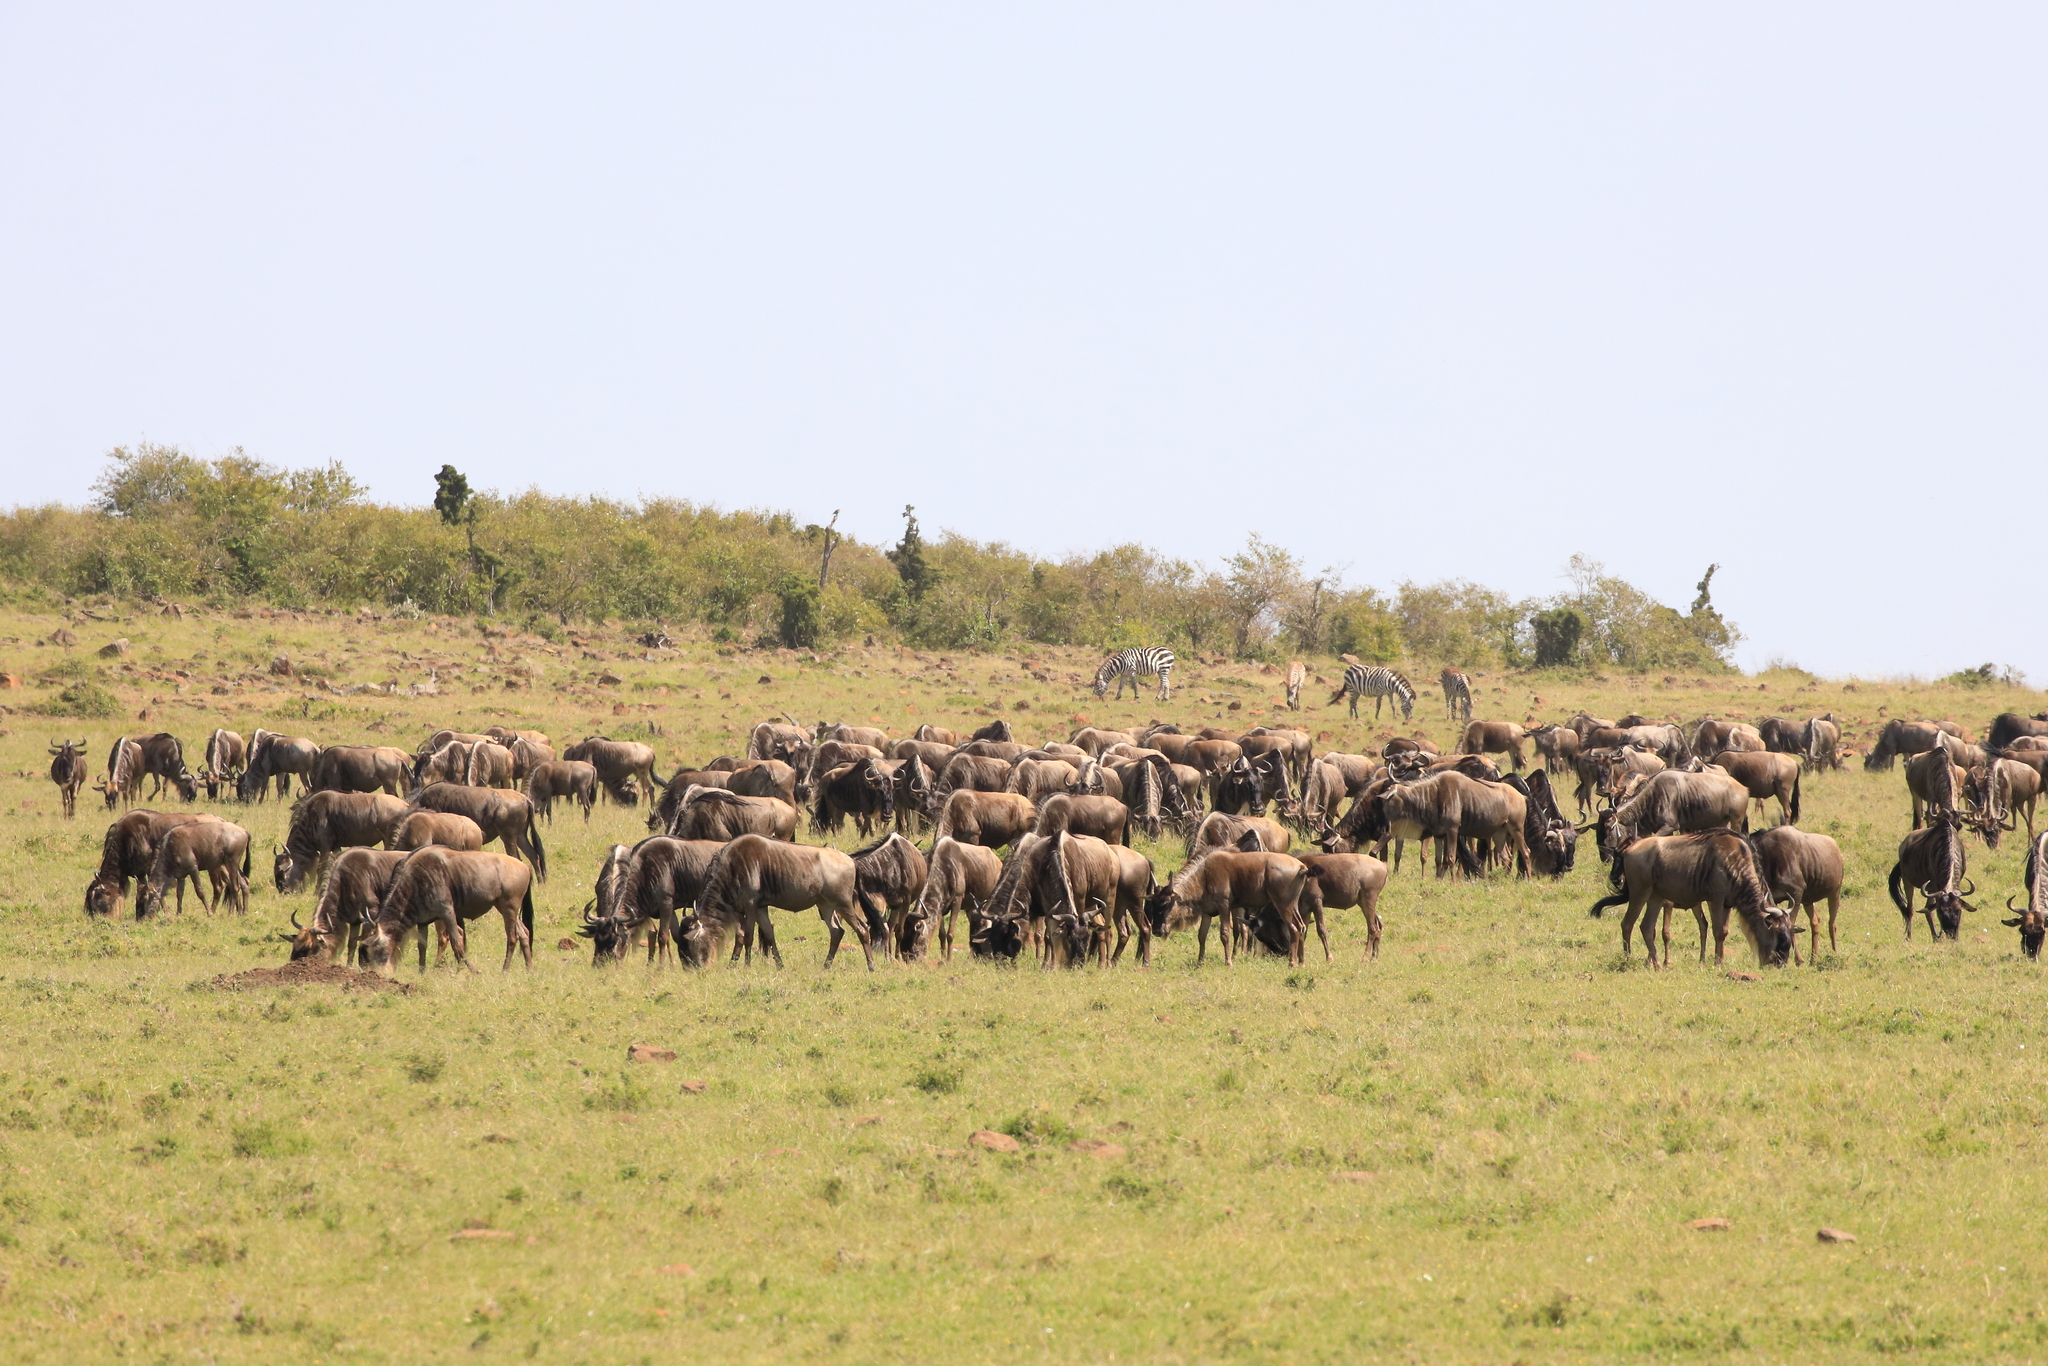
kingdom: Animalia
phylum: Chordata
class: Mammalia
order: Artiodactyla
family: Bovidae
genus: Connochaetes
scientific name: Connochaetes taurinus
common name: Blue wildebeest
